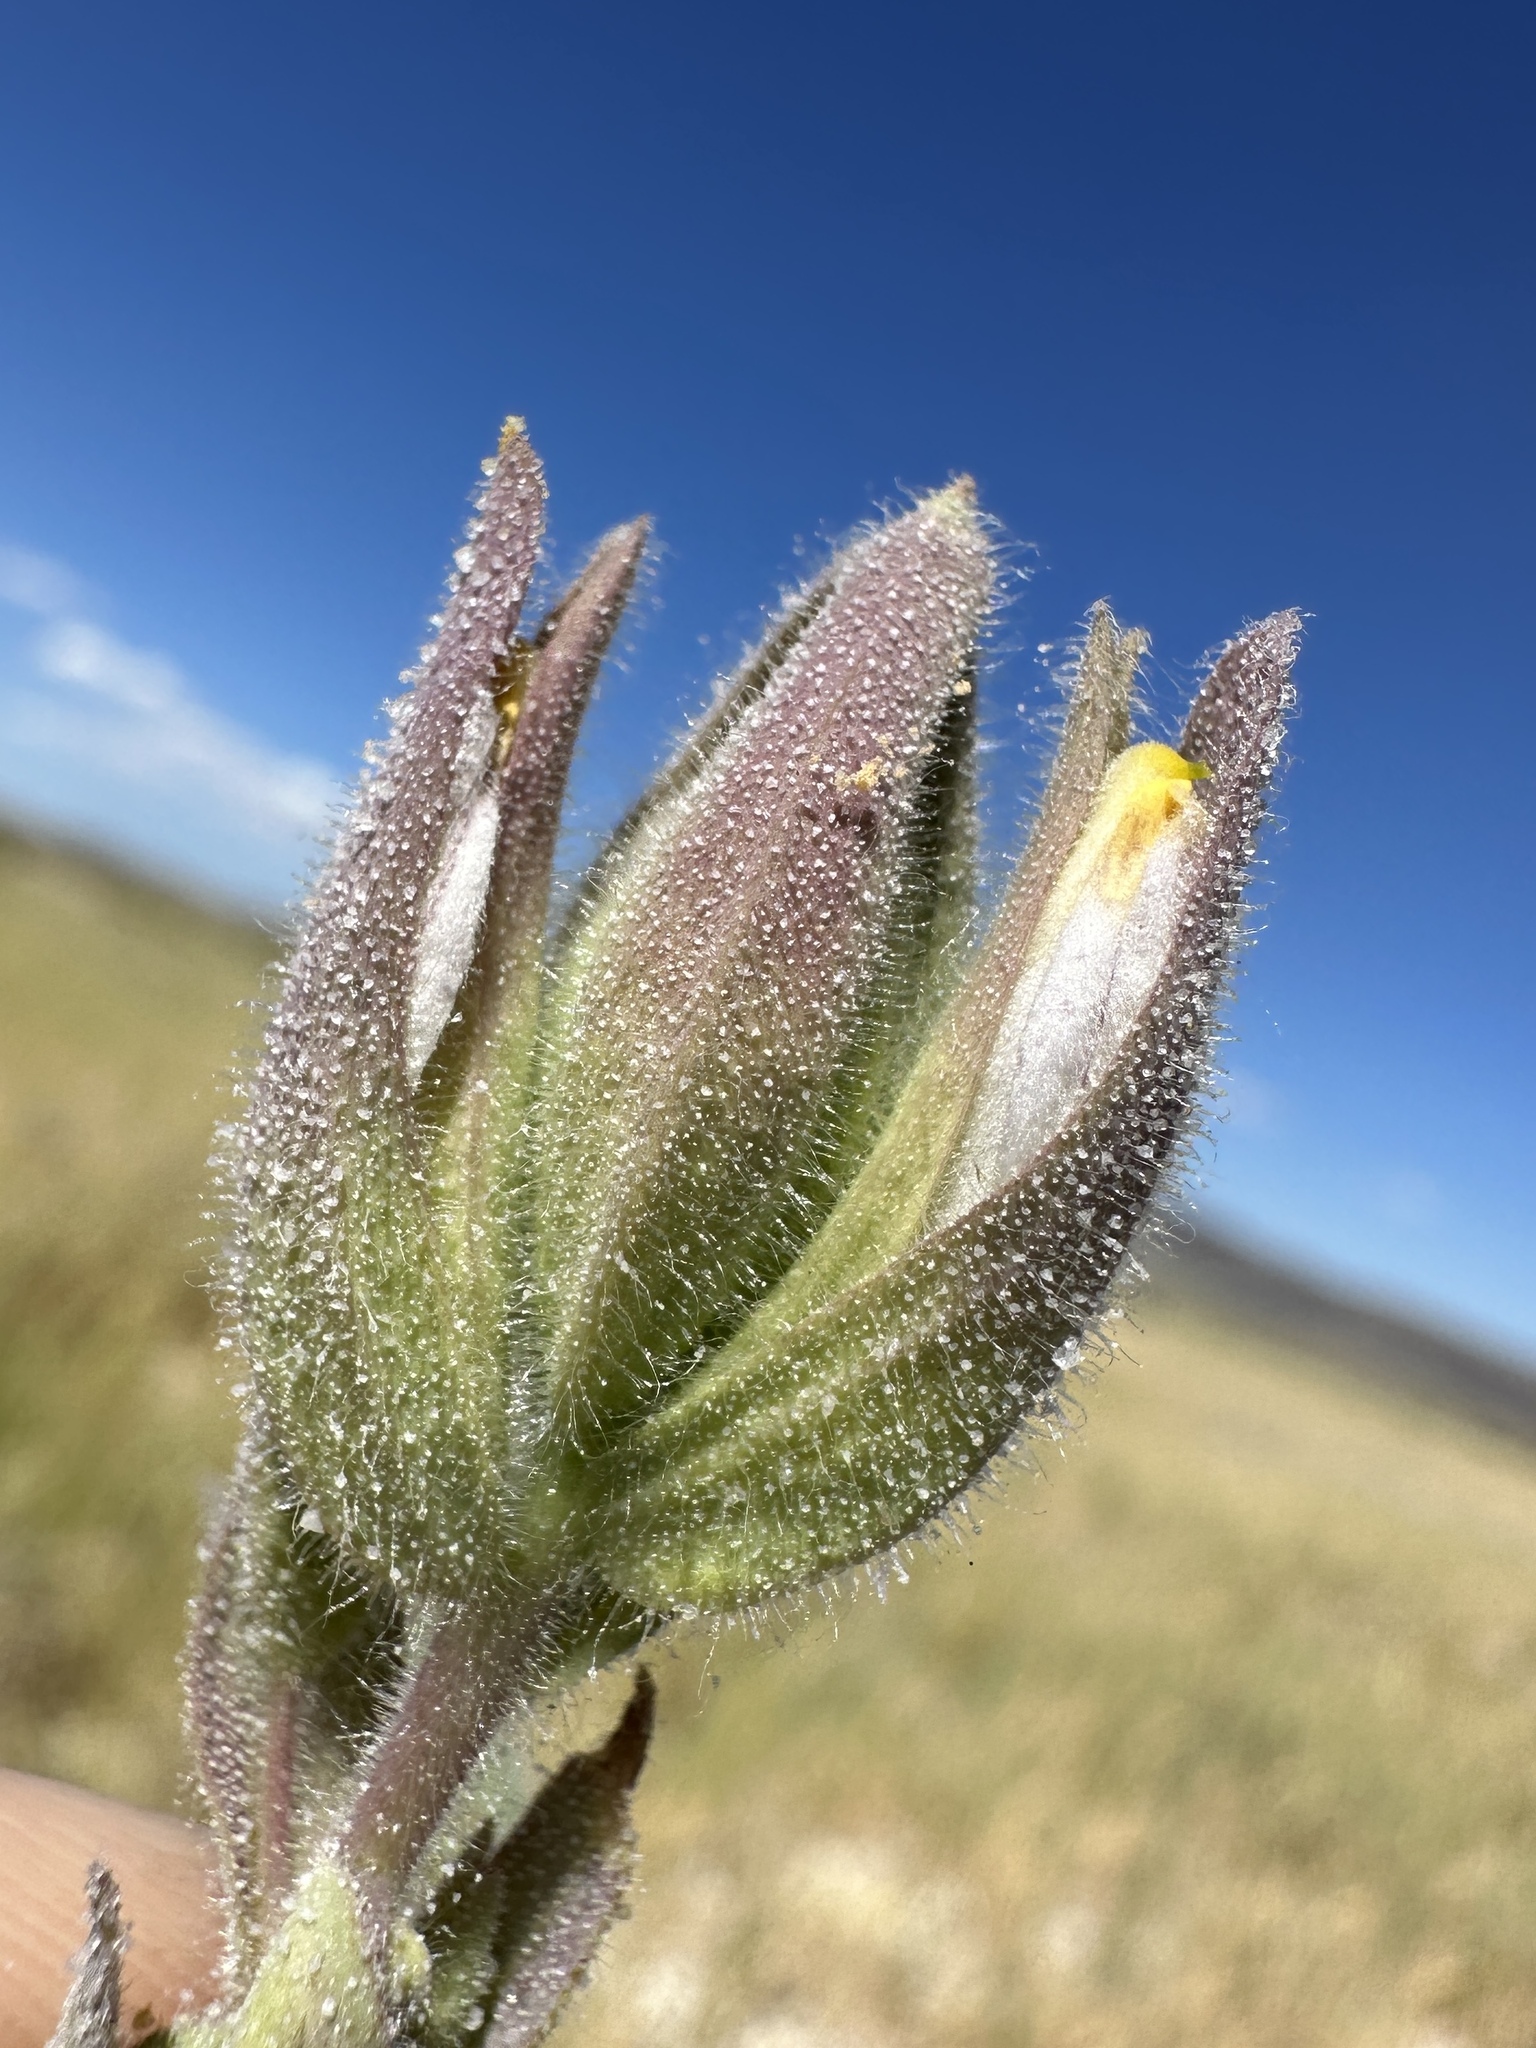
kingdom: Plantae
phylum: Tracheophyta
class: Magnoliopsida
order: Lamiales
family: Orobanchaceae
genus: Chloropyron
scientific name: Chloropyron maritimum
